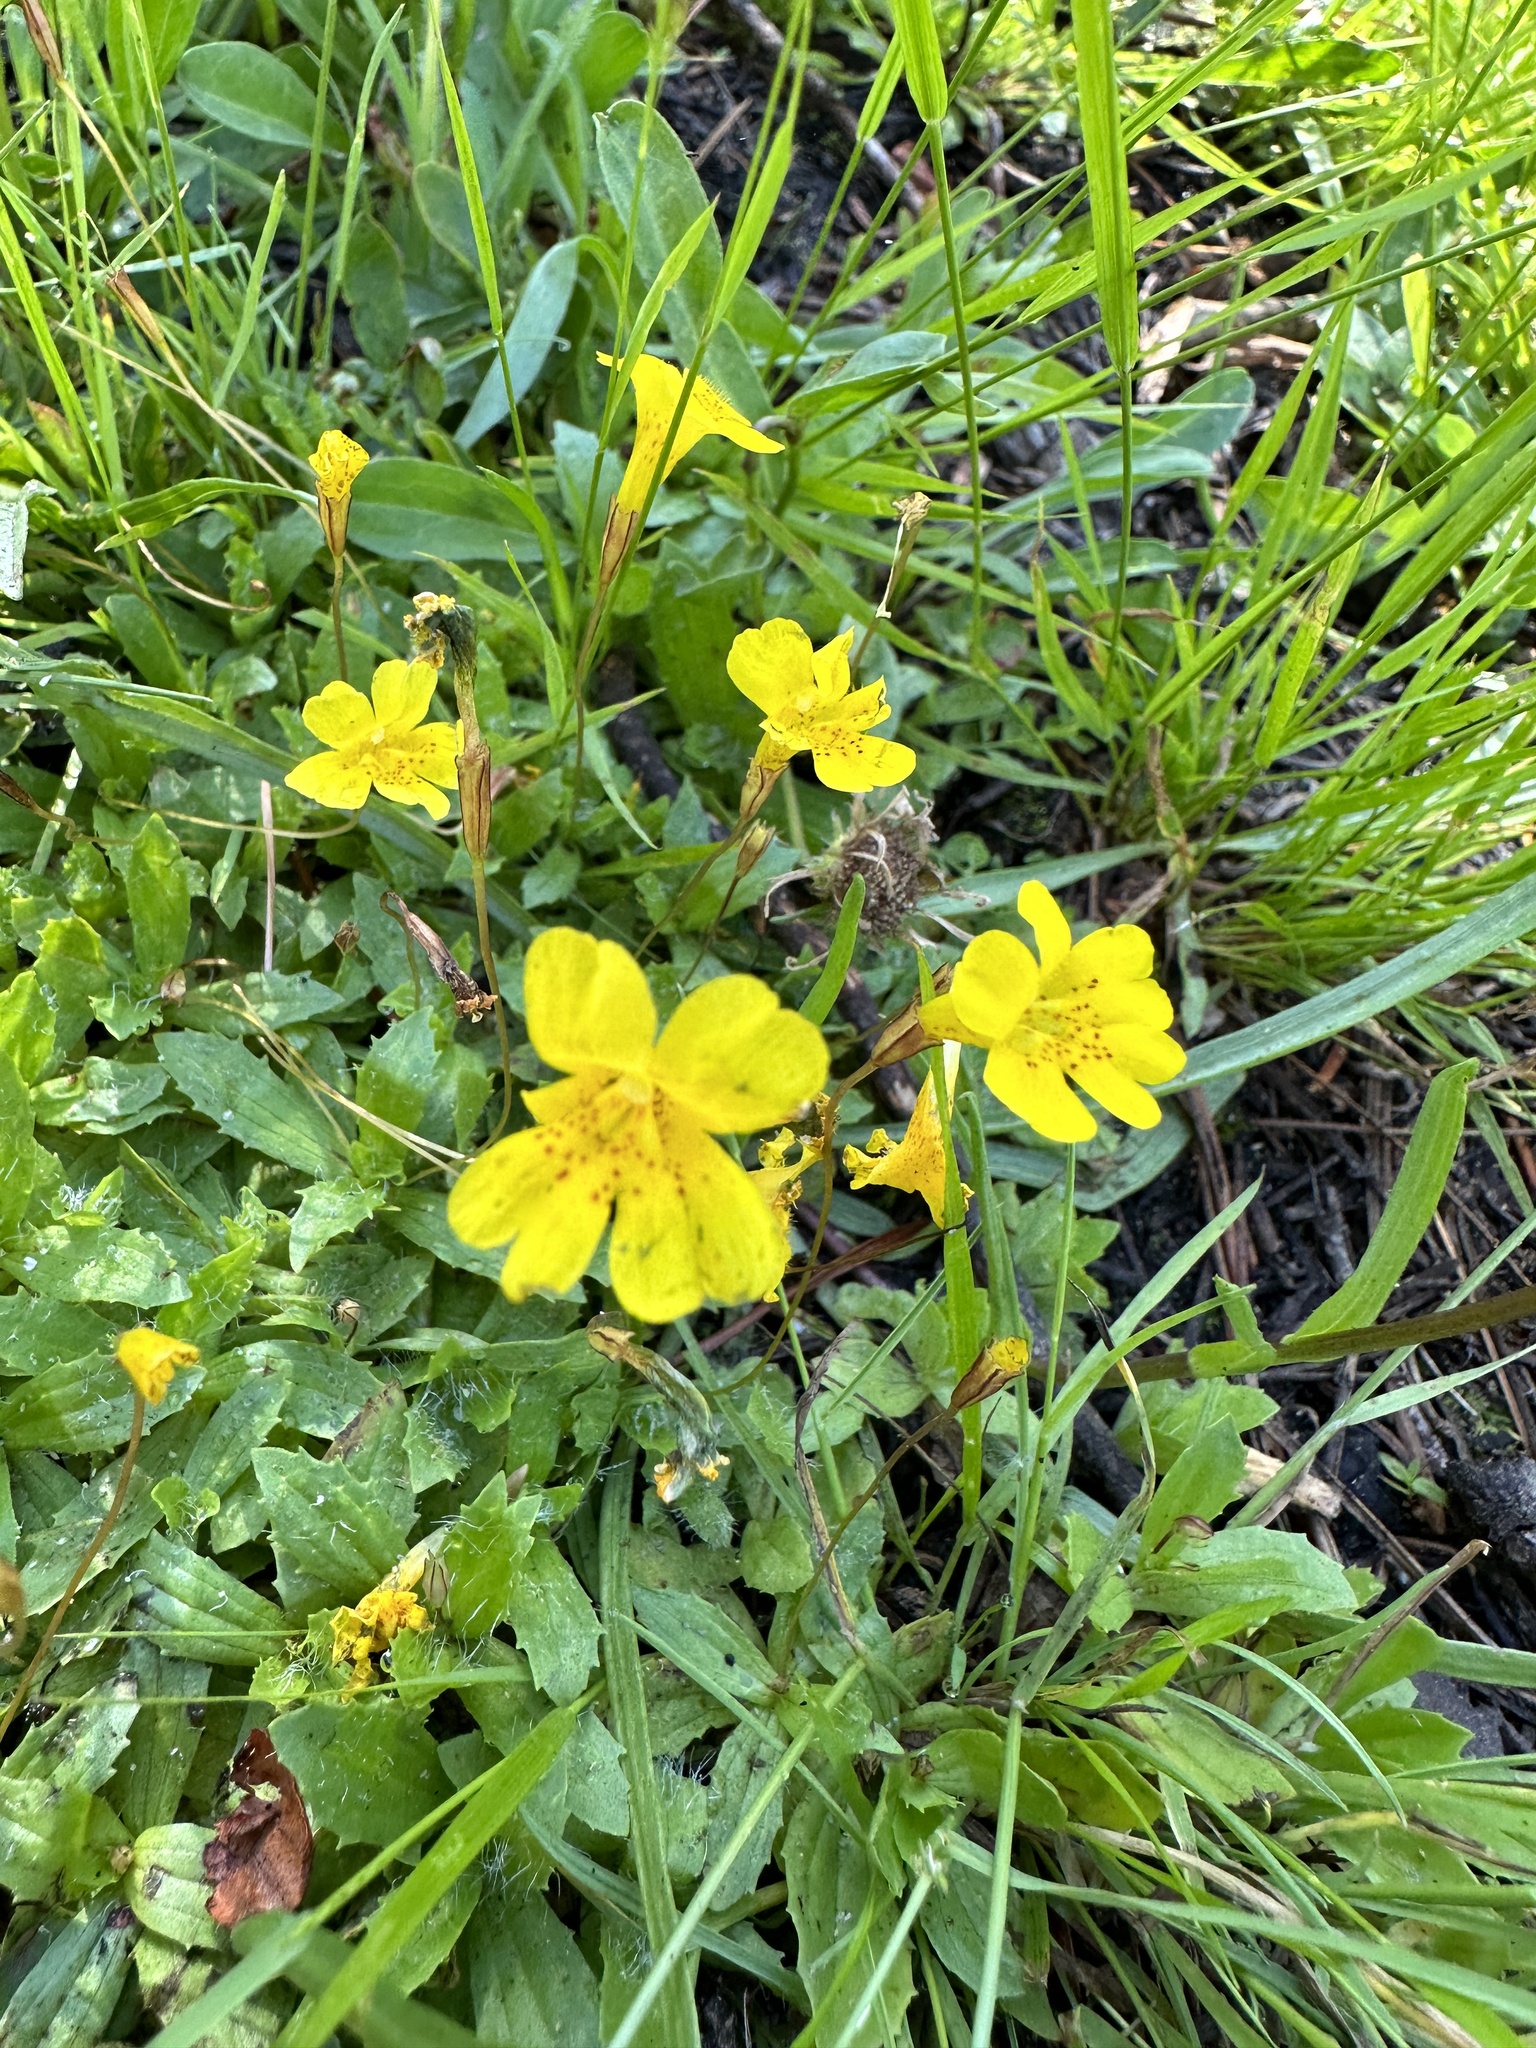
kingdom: Plantae
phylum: Tracheophyta
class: Magnoliopsida
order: Lamiales
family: Phrymaceae
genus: Erythranthe
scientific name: Erythranthe primuloides
